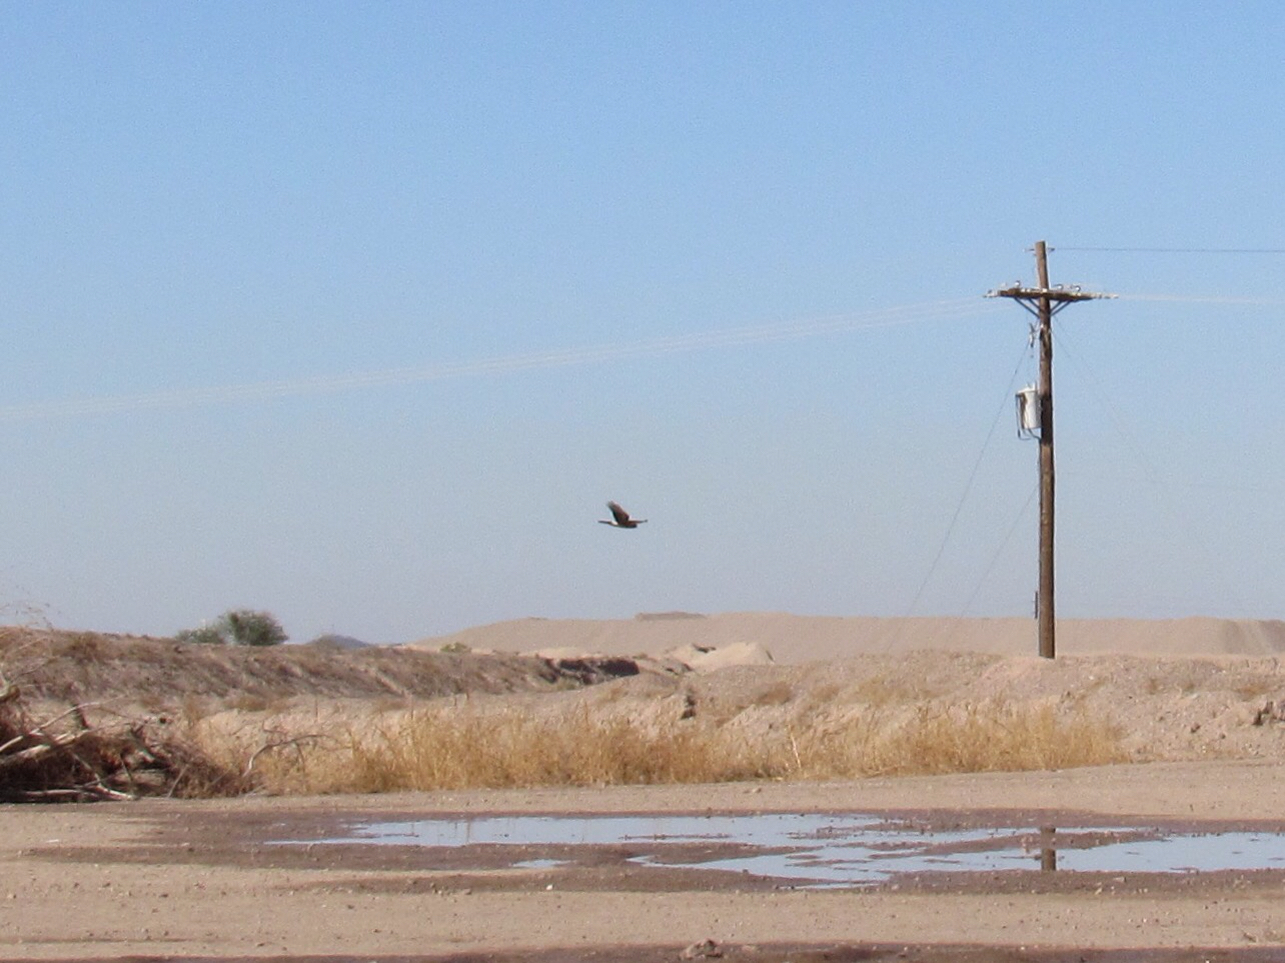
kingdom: Animalia
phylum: Chordata
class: Aves
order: Accipitriformes
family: Accipitridae
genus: Circus
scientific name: Circus cyaneus
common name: Hen harrier
